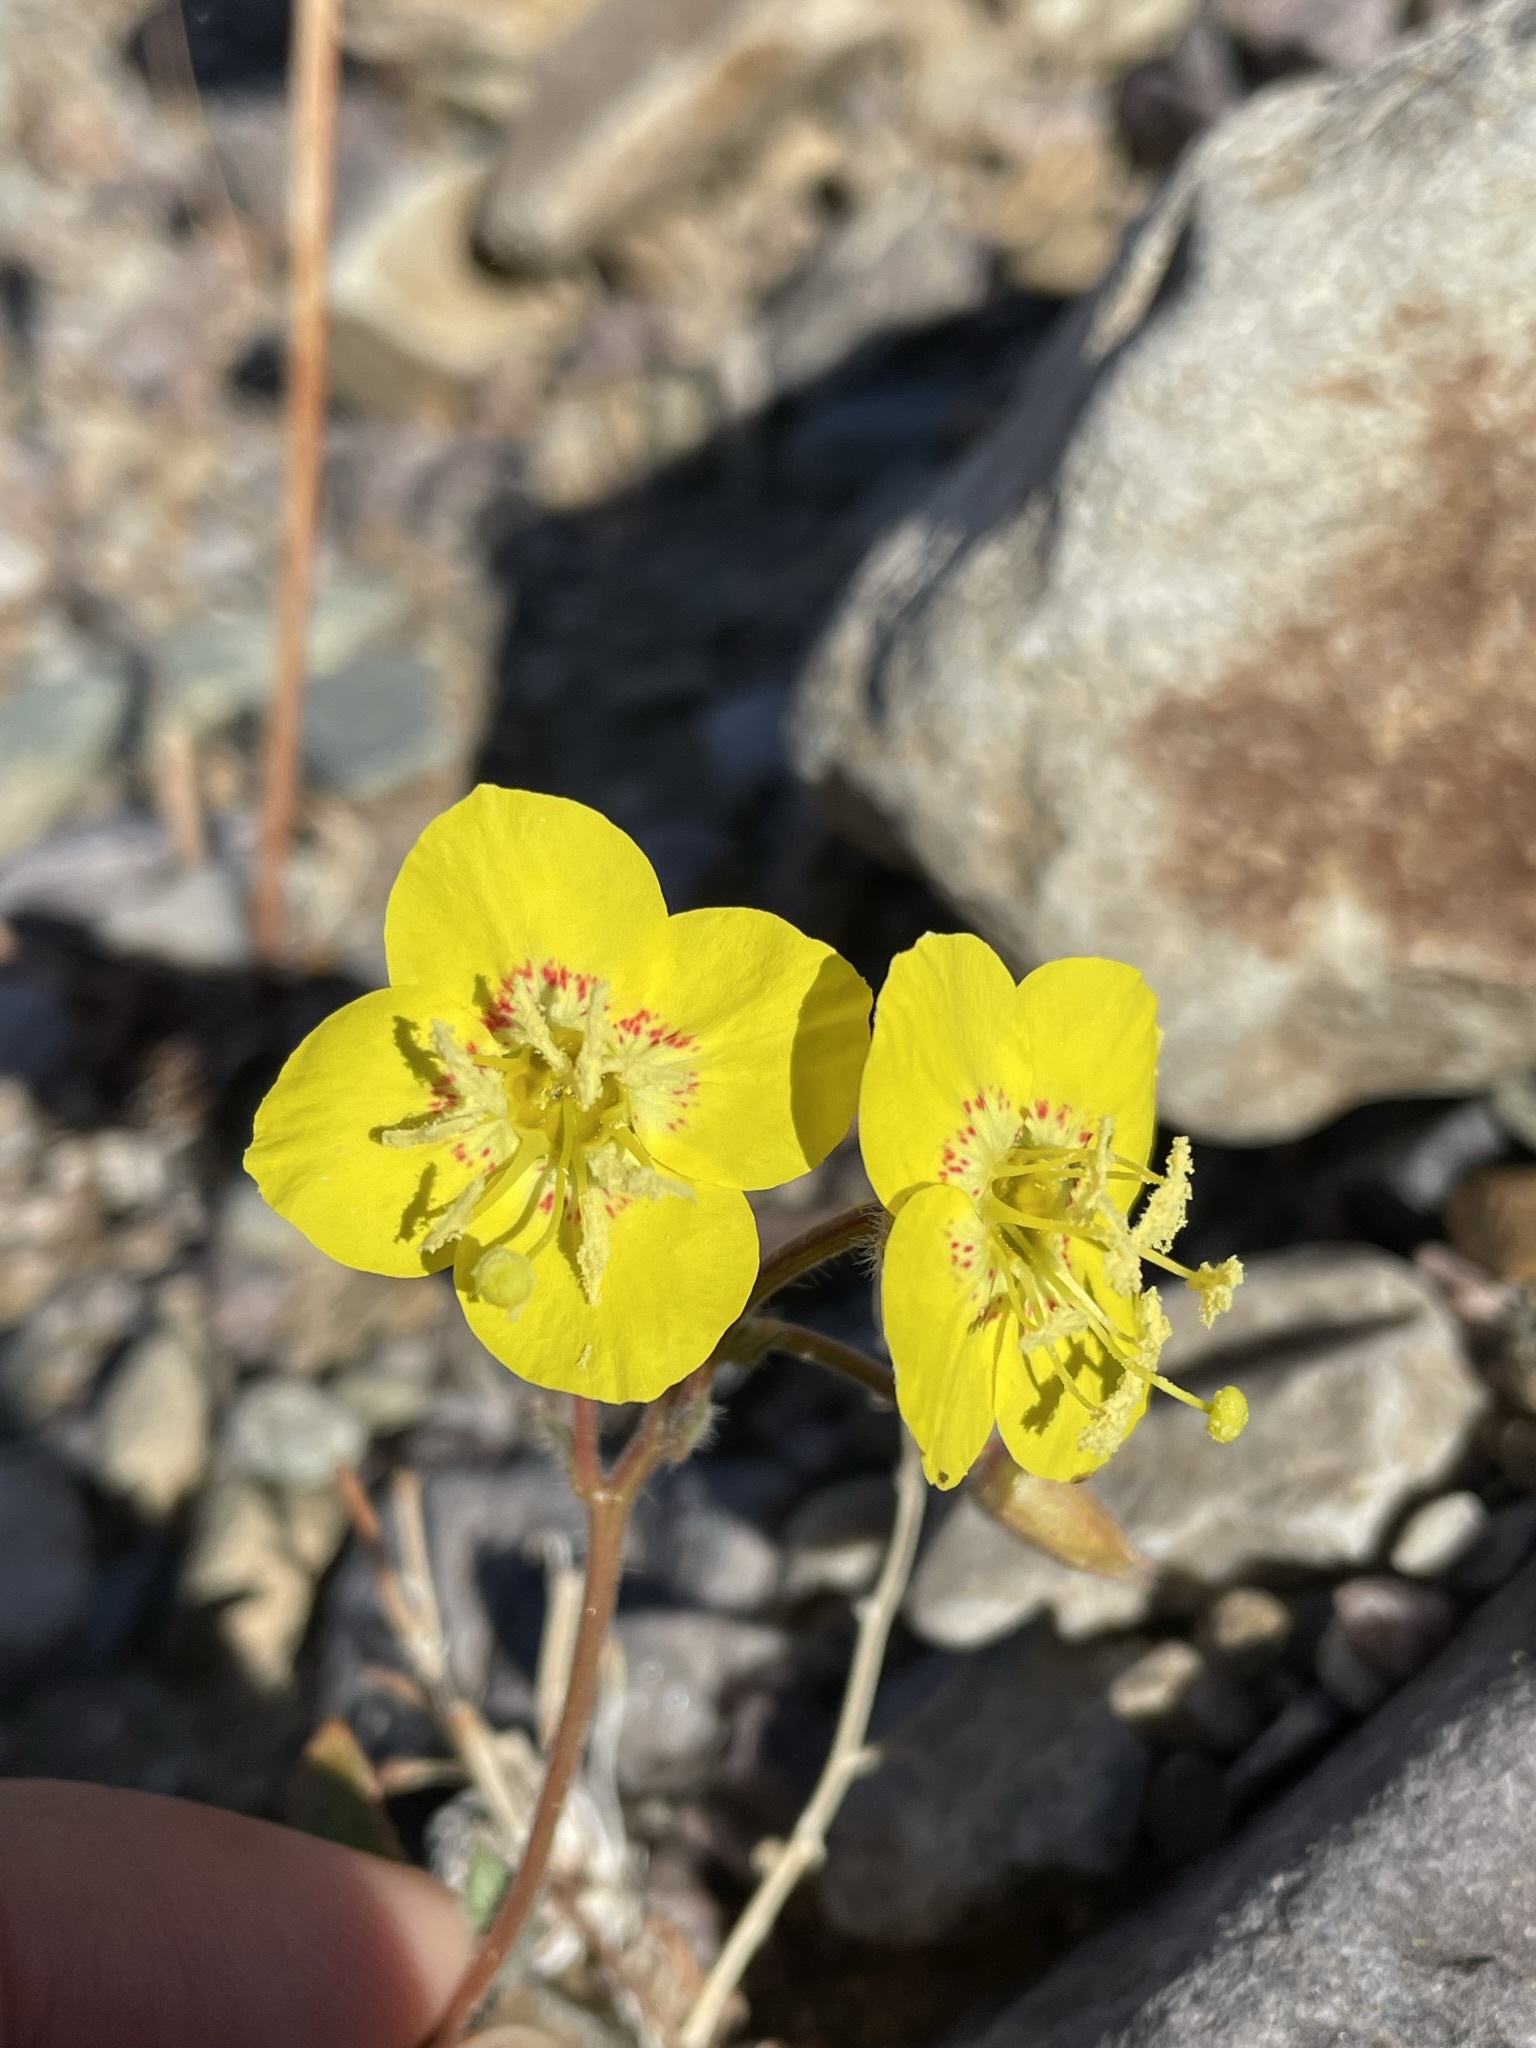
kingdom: Plantae
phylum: Tracheophyta
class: Magnoliopsida
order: Myrtales
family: Onagraceae
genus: Chylismia
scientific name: Chylismia brevipes
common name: Yellow cups
